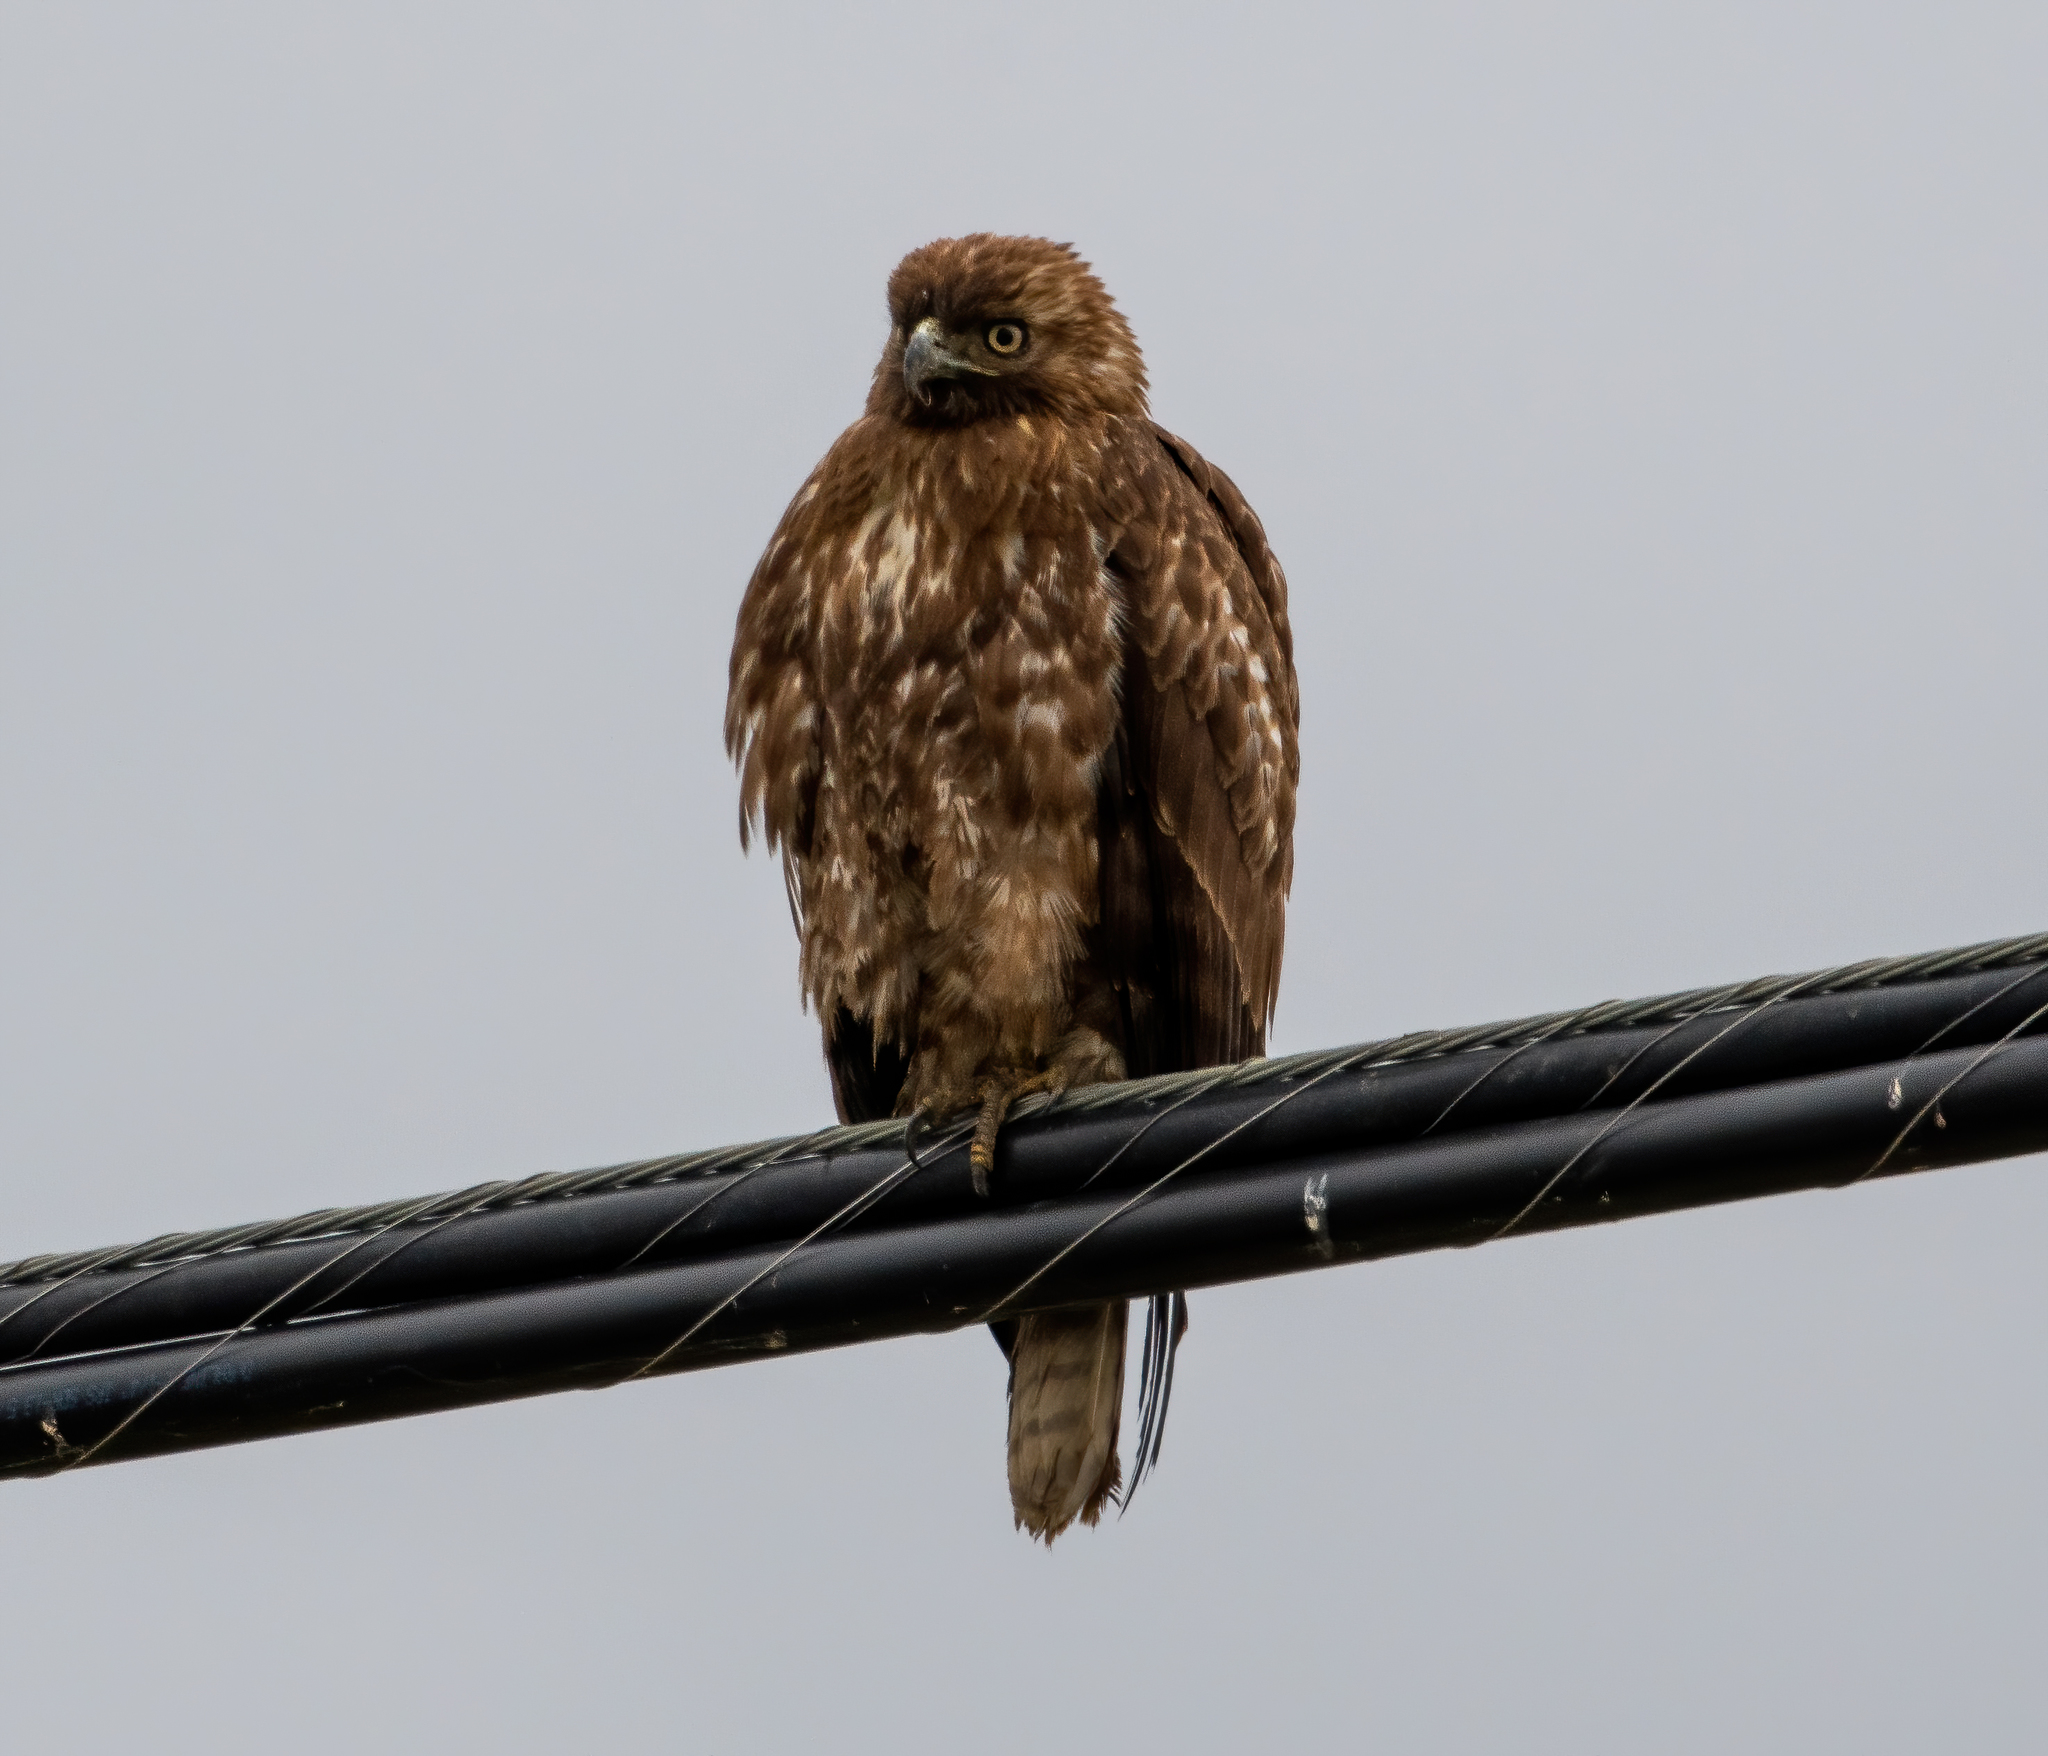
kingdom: Animalia
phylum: Chordata
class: Aves
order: Accipitriformes
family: Accipitridae
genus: Buteo
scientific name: Buteo jamaicensis
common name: Red-tailed hawk
